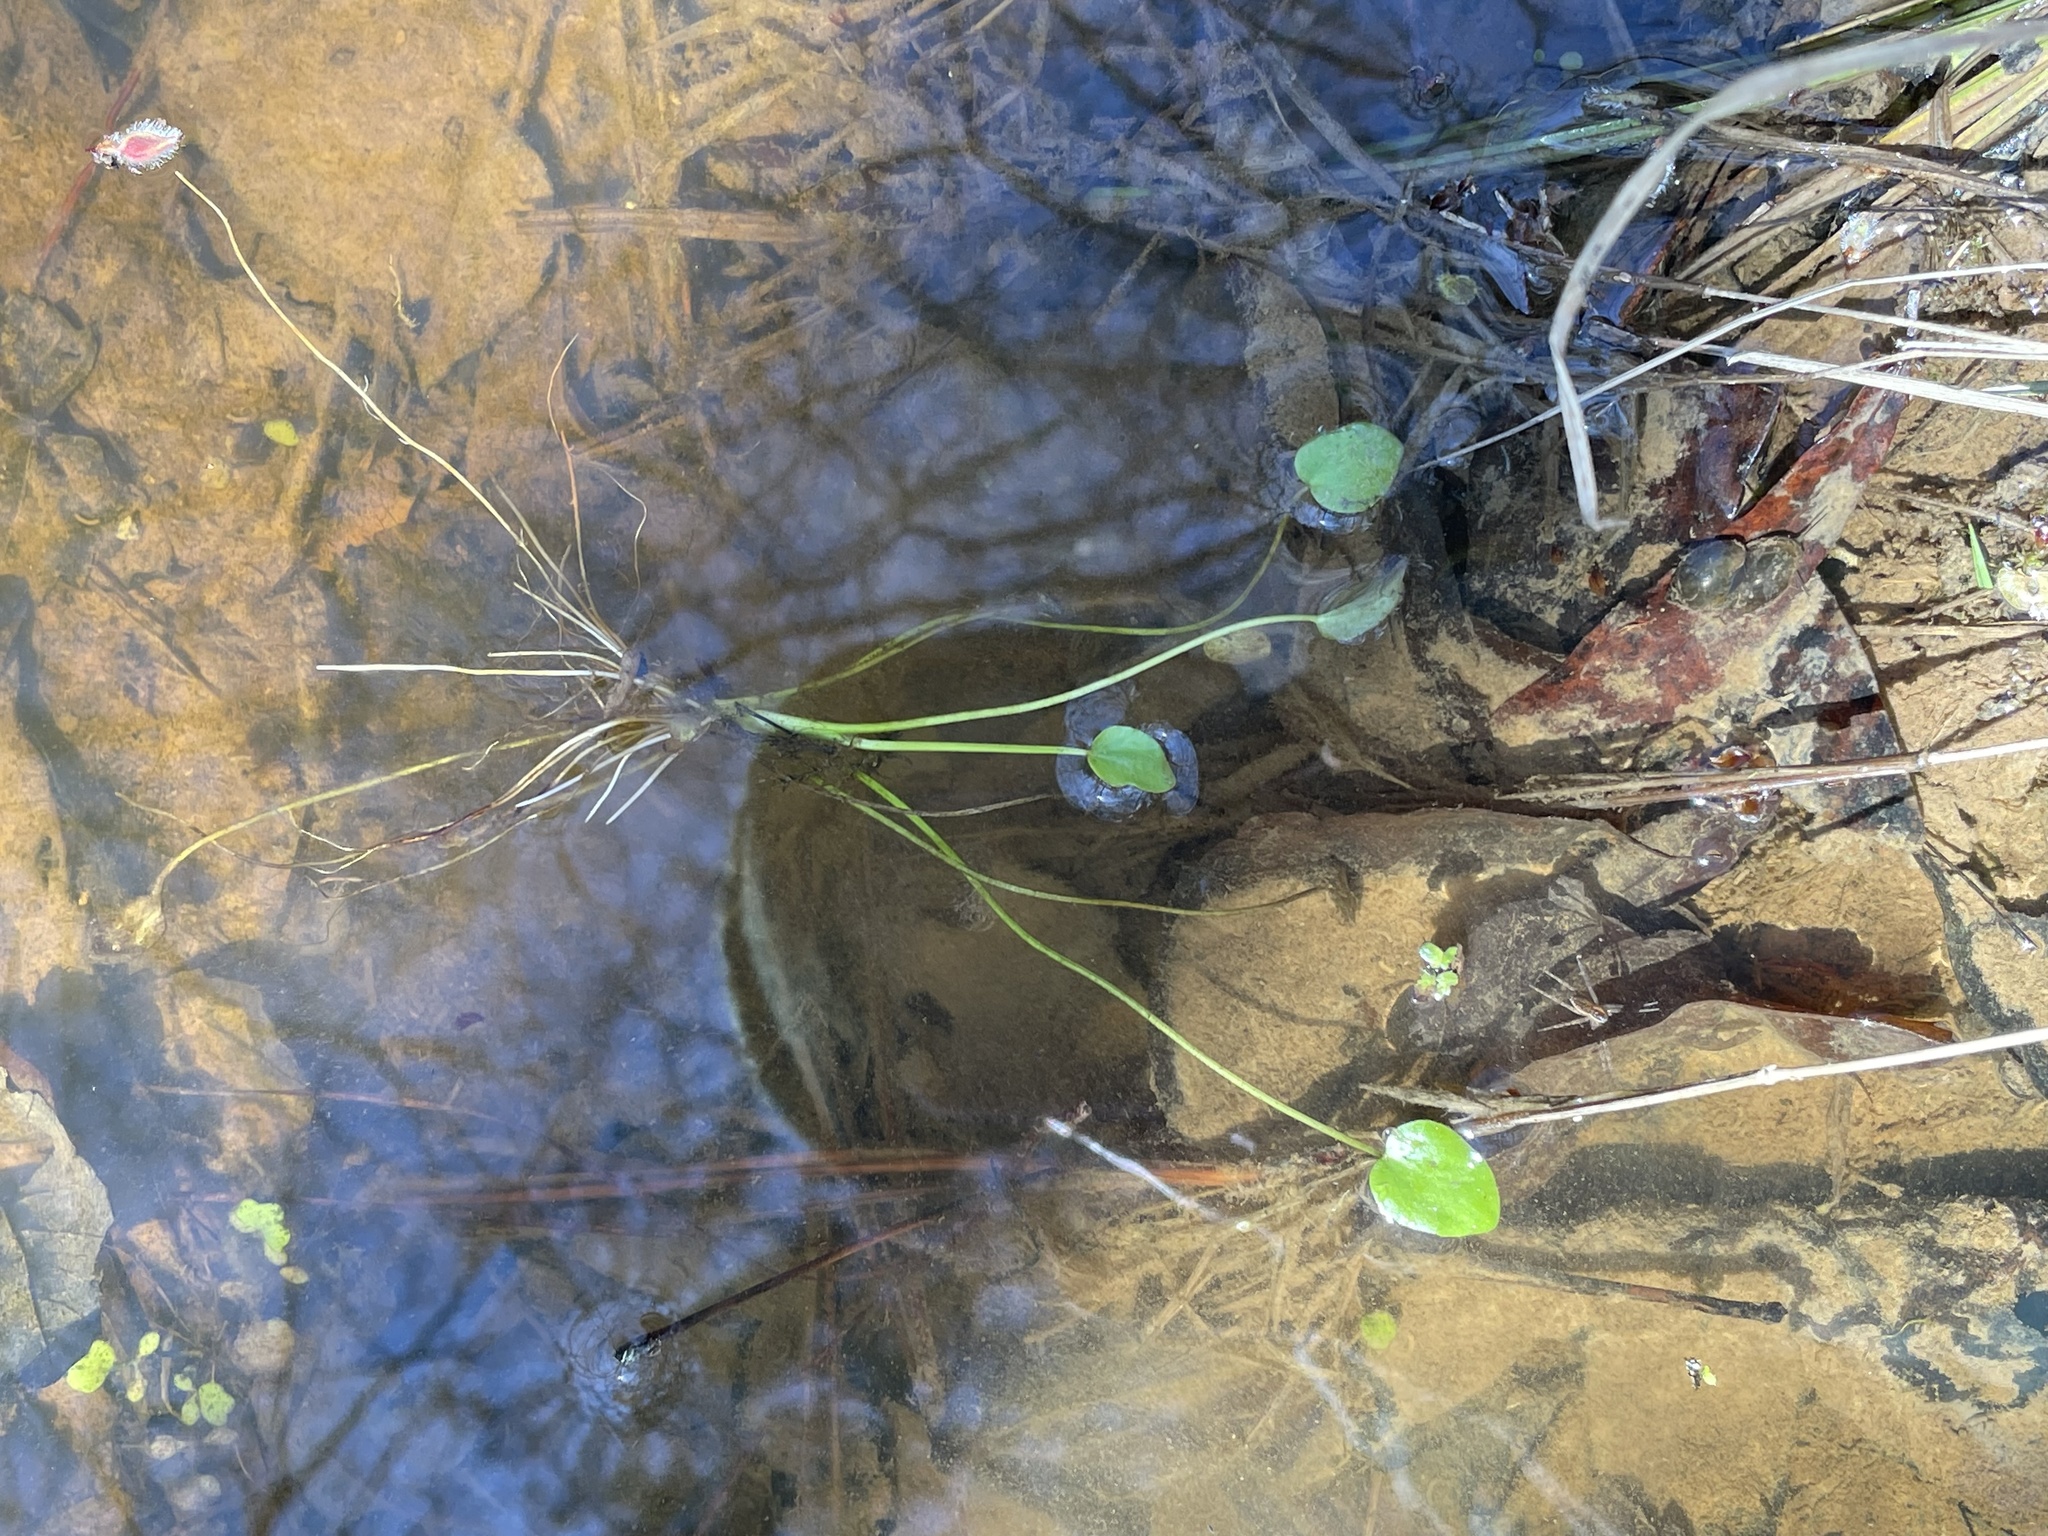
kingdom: Plantae
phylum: Tracheophyta
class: Magnoliopsida
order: Ranunculales
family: Ranunculaceae
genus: Ranunculus
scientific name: Ranunculus pusillus
